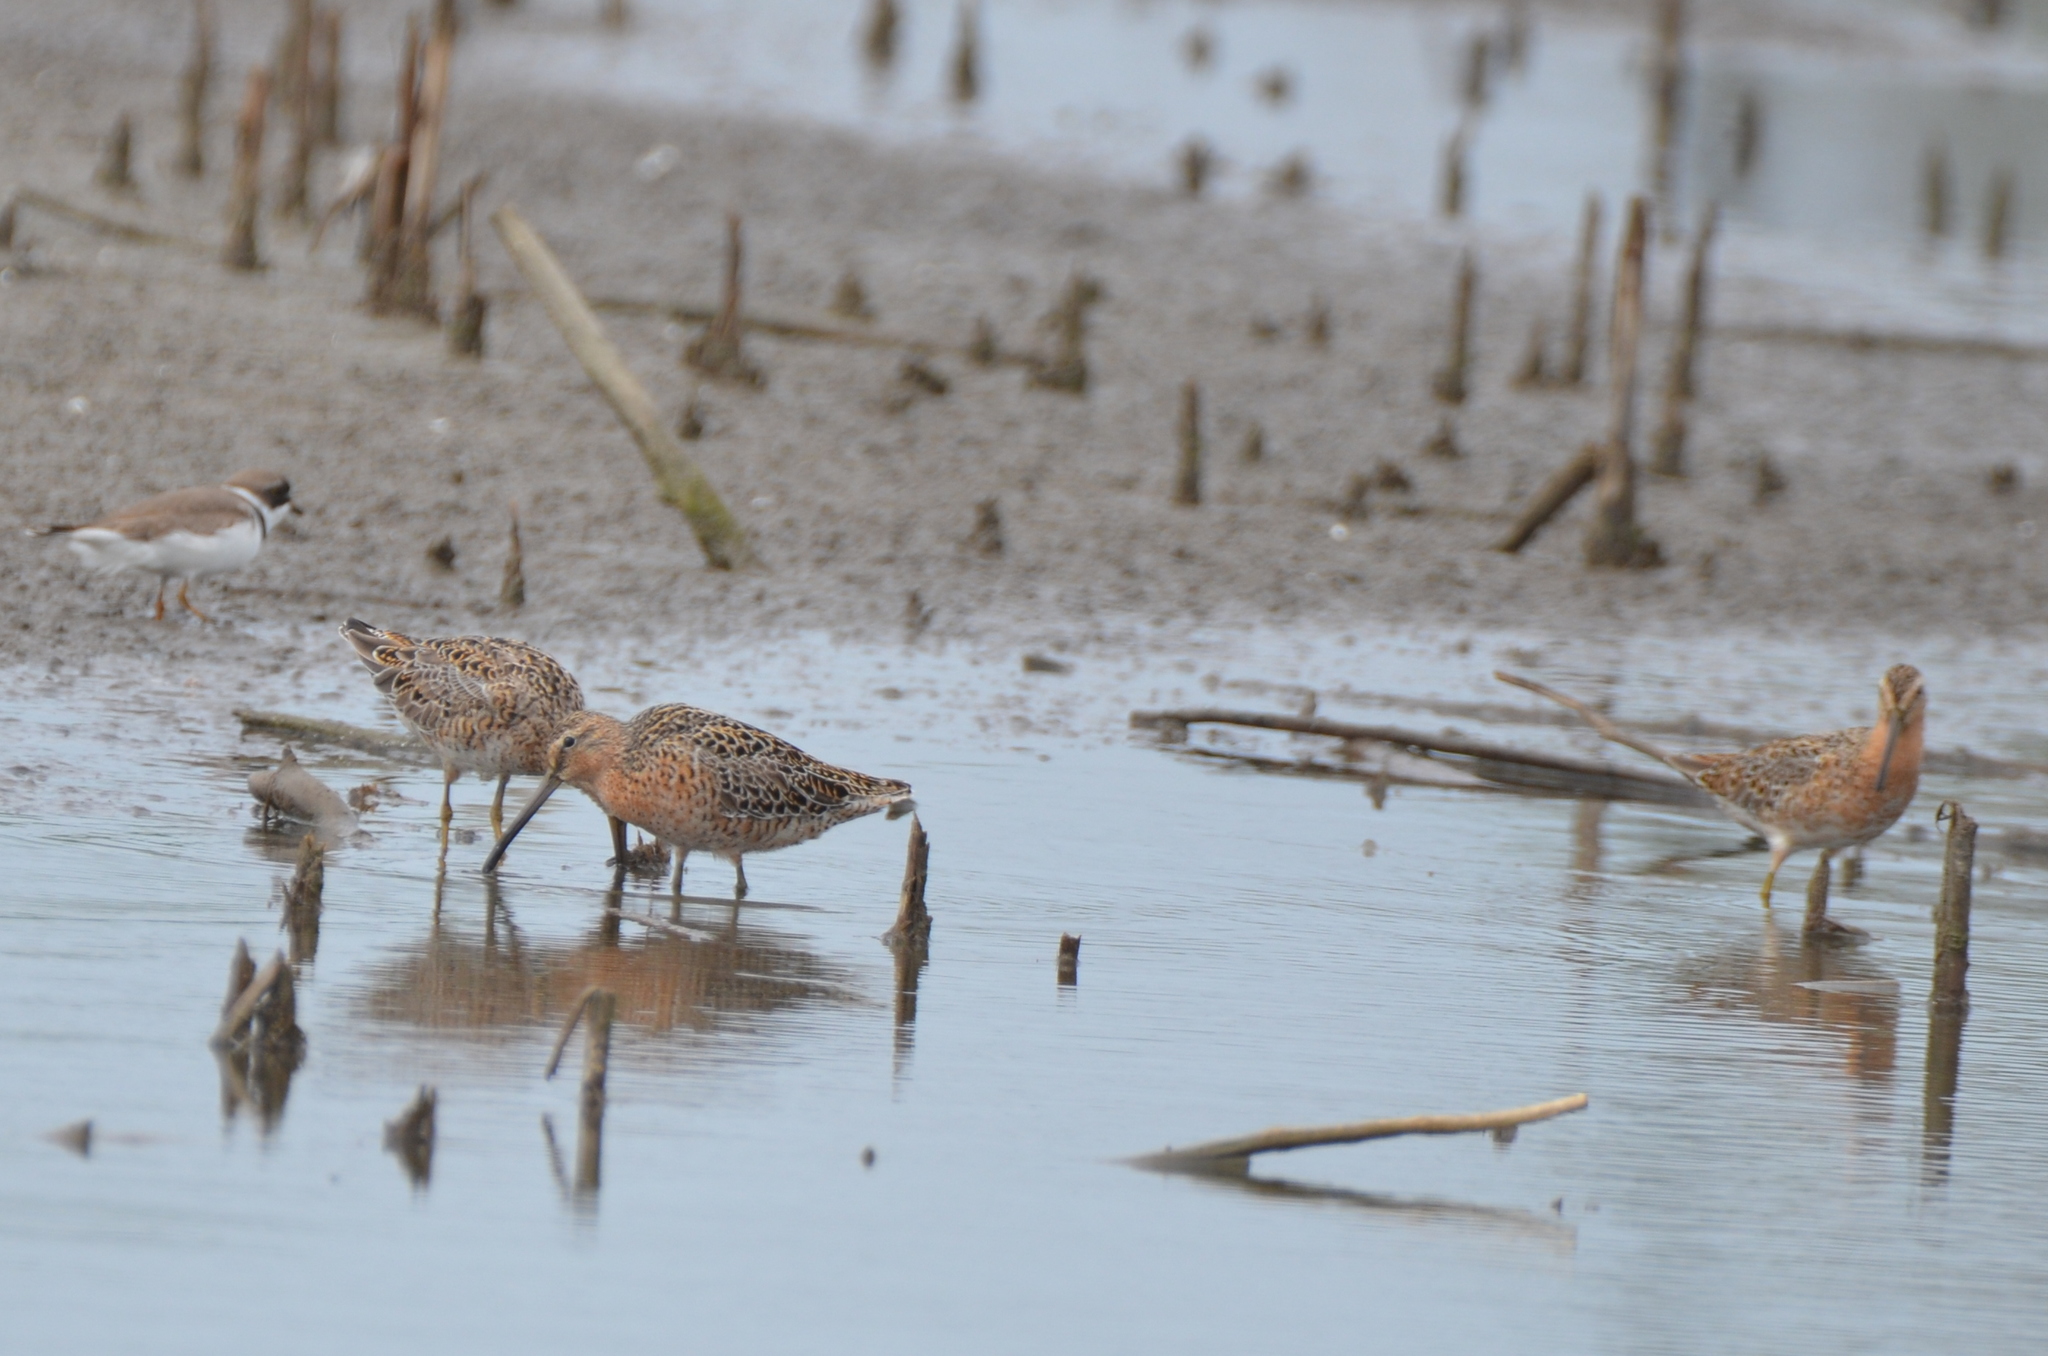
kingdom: Animalia
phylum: Chordata
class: Aves
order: Charadriiformes
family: Scolopacidae
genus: Limnodromus
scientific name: Limnodromus griseus
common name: Short-billed dowitcher
